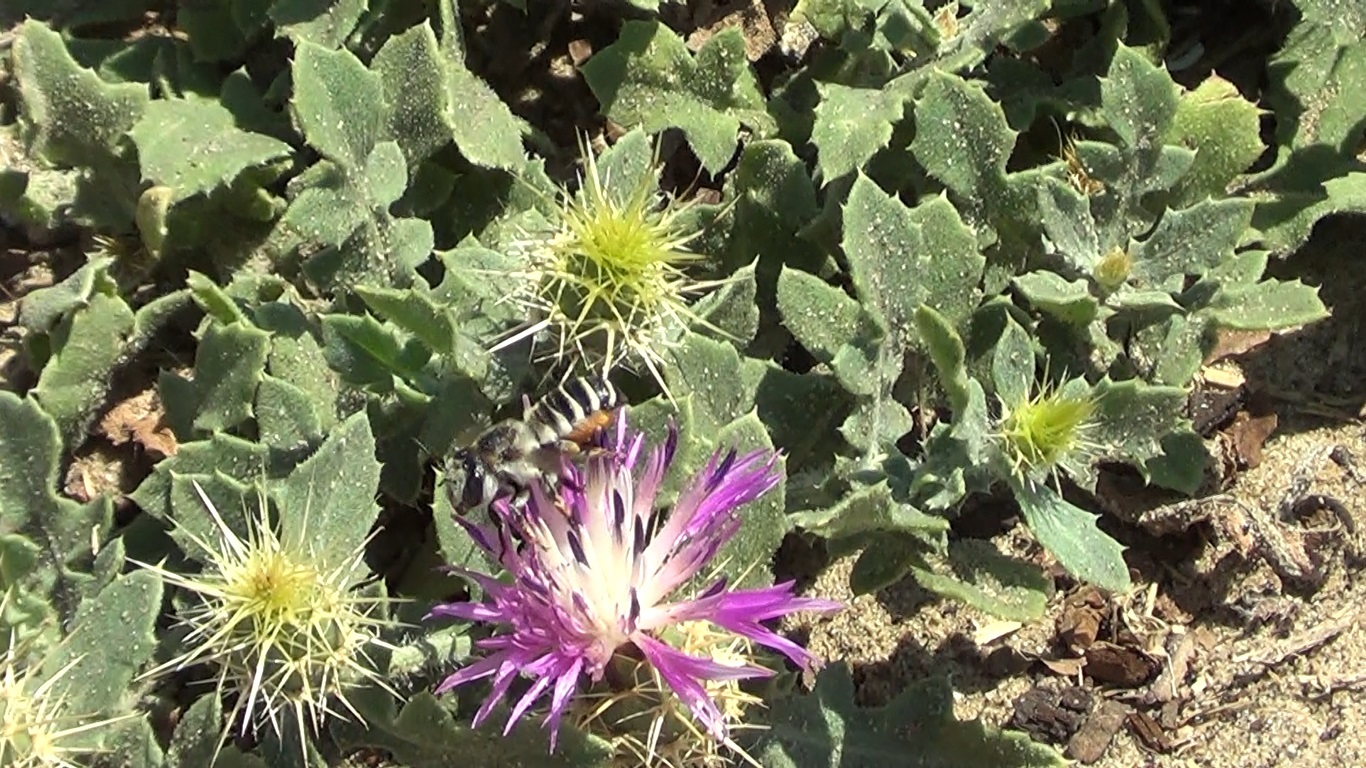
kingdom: Animalia
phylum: Arthropoda
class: Insecta
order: Hymenoptera
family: Megachilidae
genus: Megachile
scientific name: Megachile albisecta
